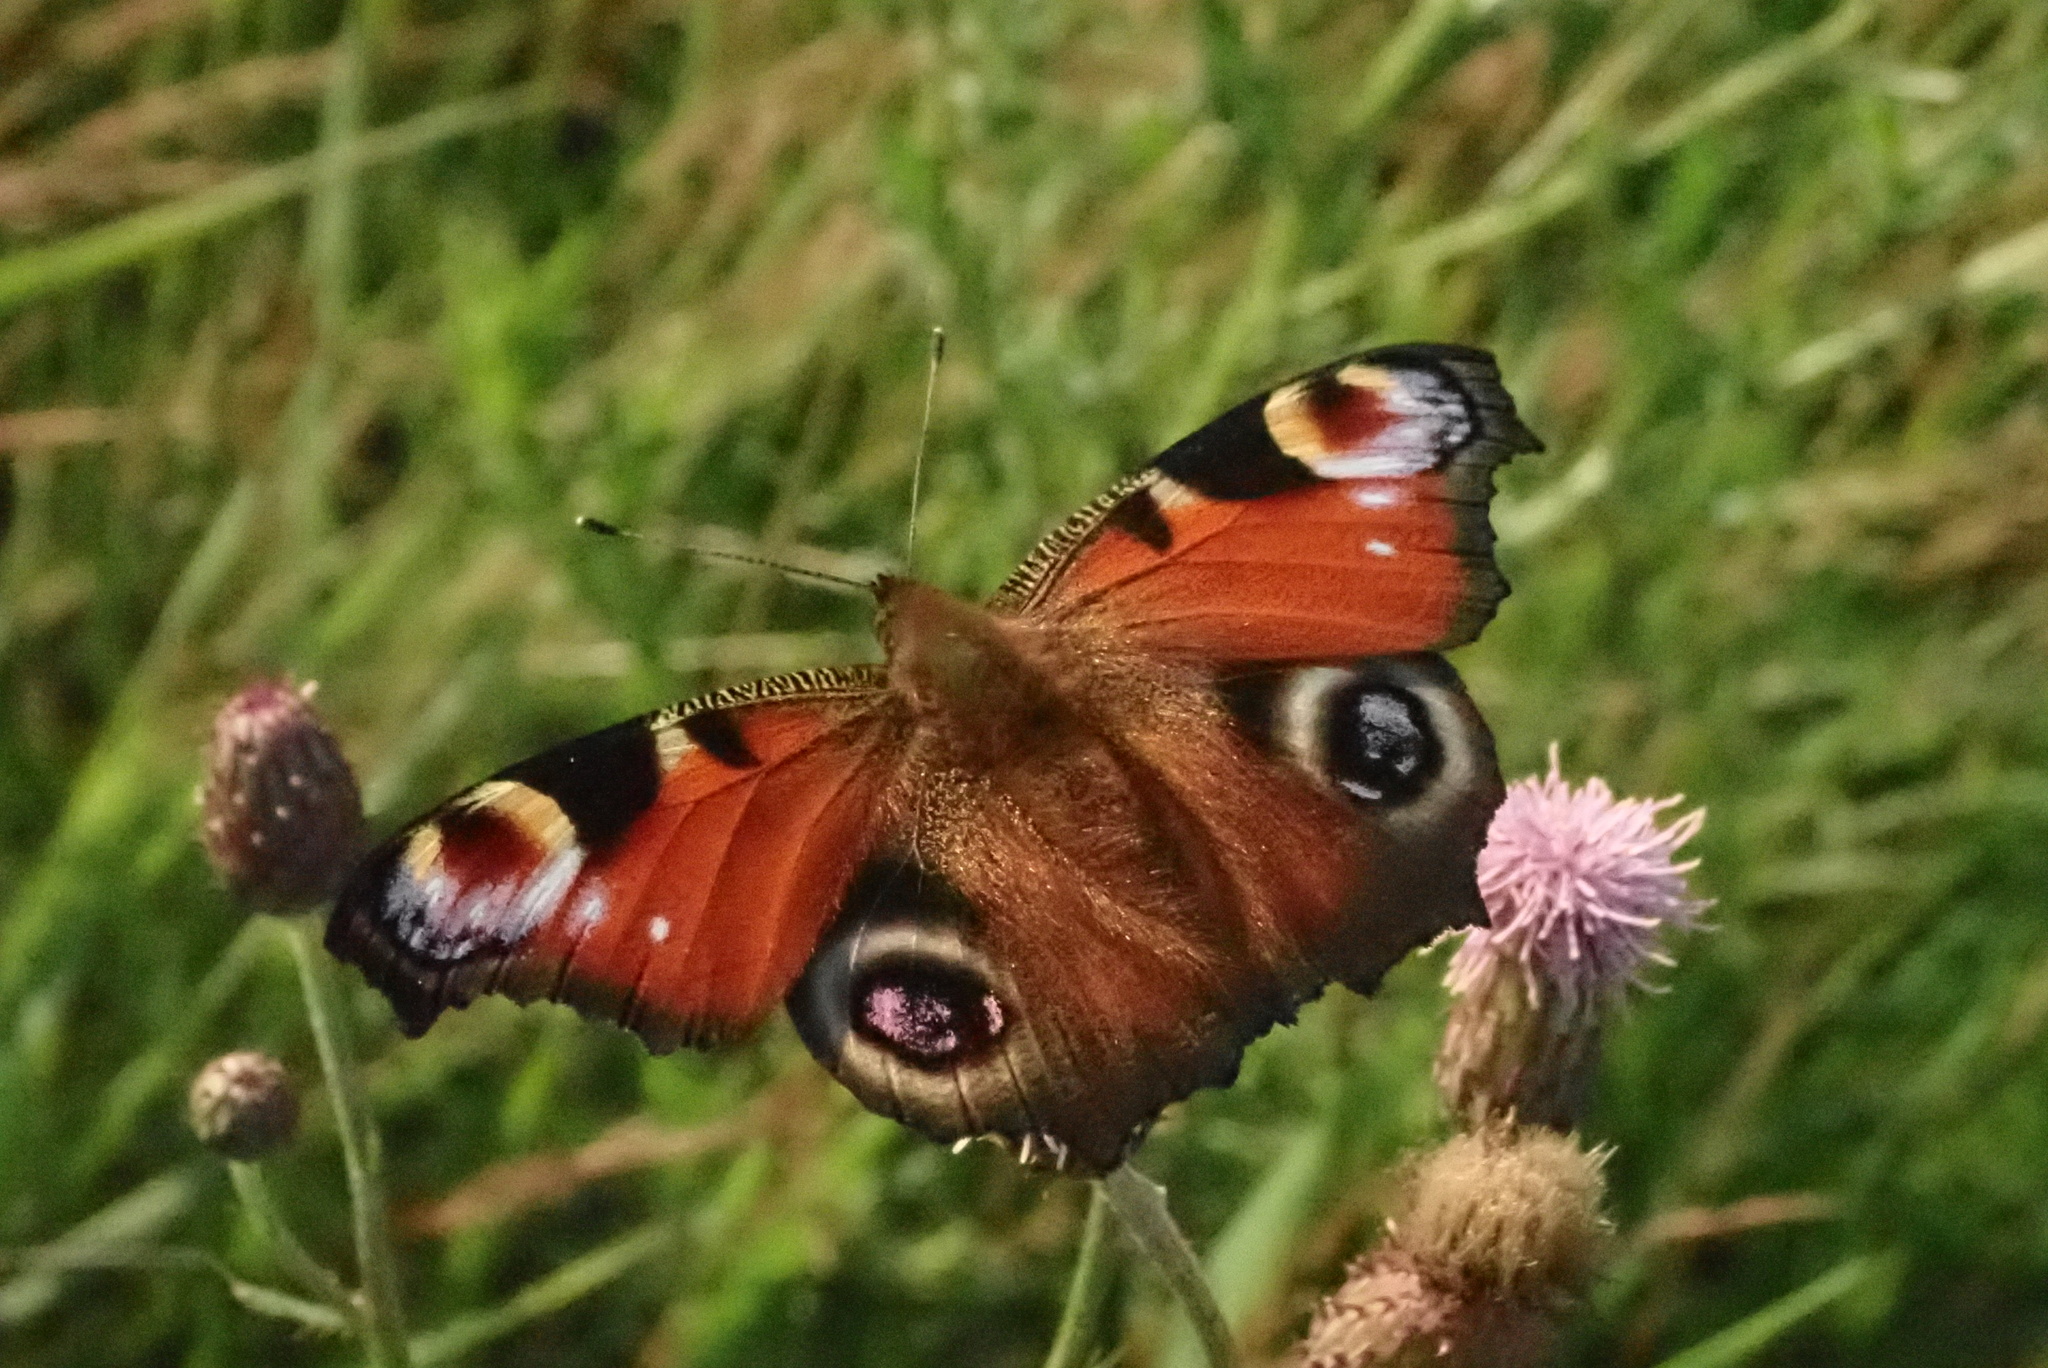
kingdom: Animalia
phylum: Arthropoda
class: Insecta
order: Lepidoptera
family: Nymphalidae
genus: Aglais
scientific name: Aglais io
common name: Peacock
